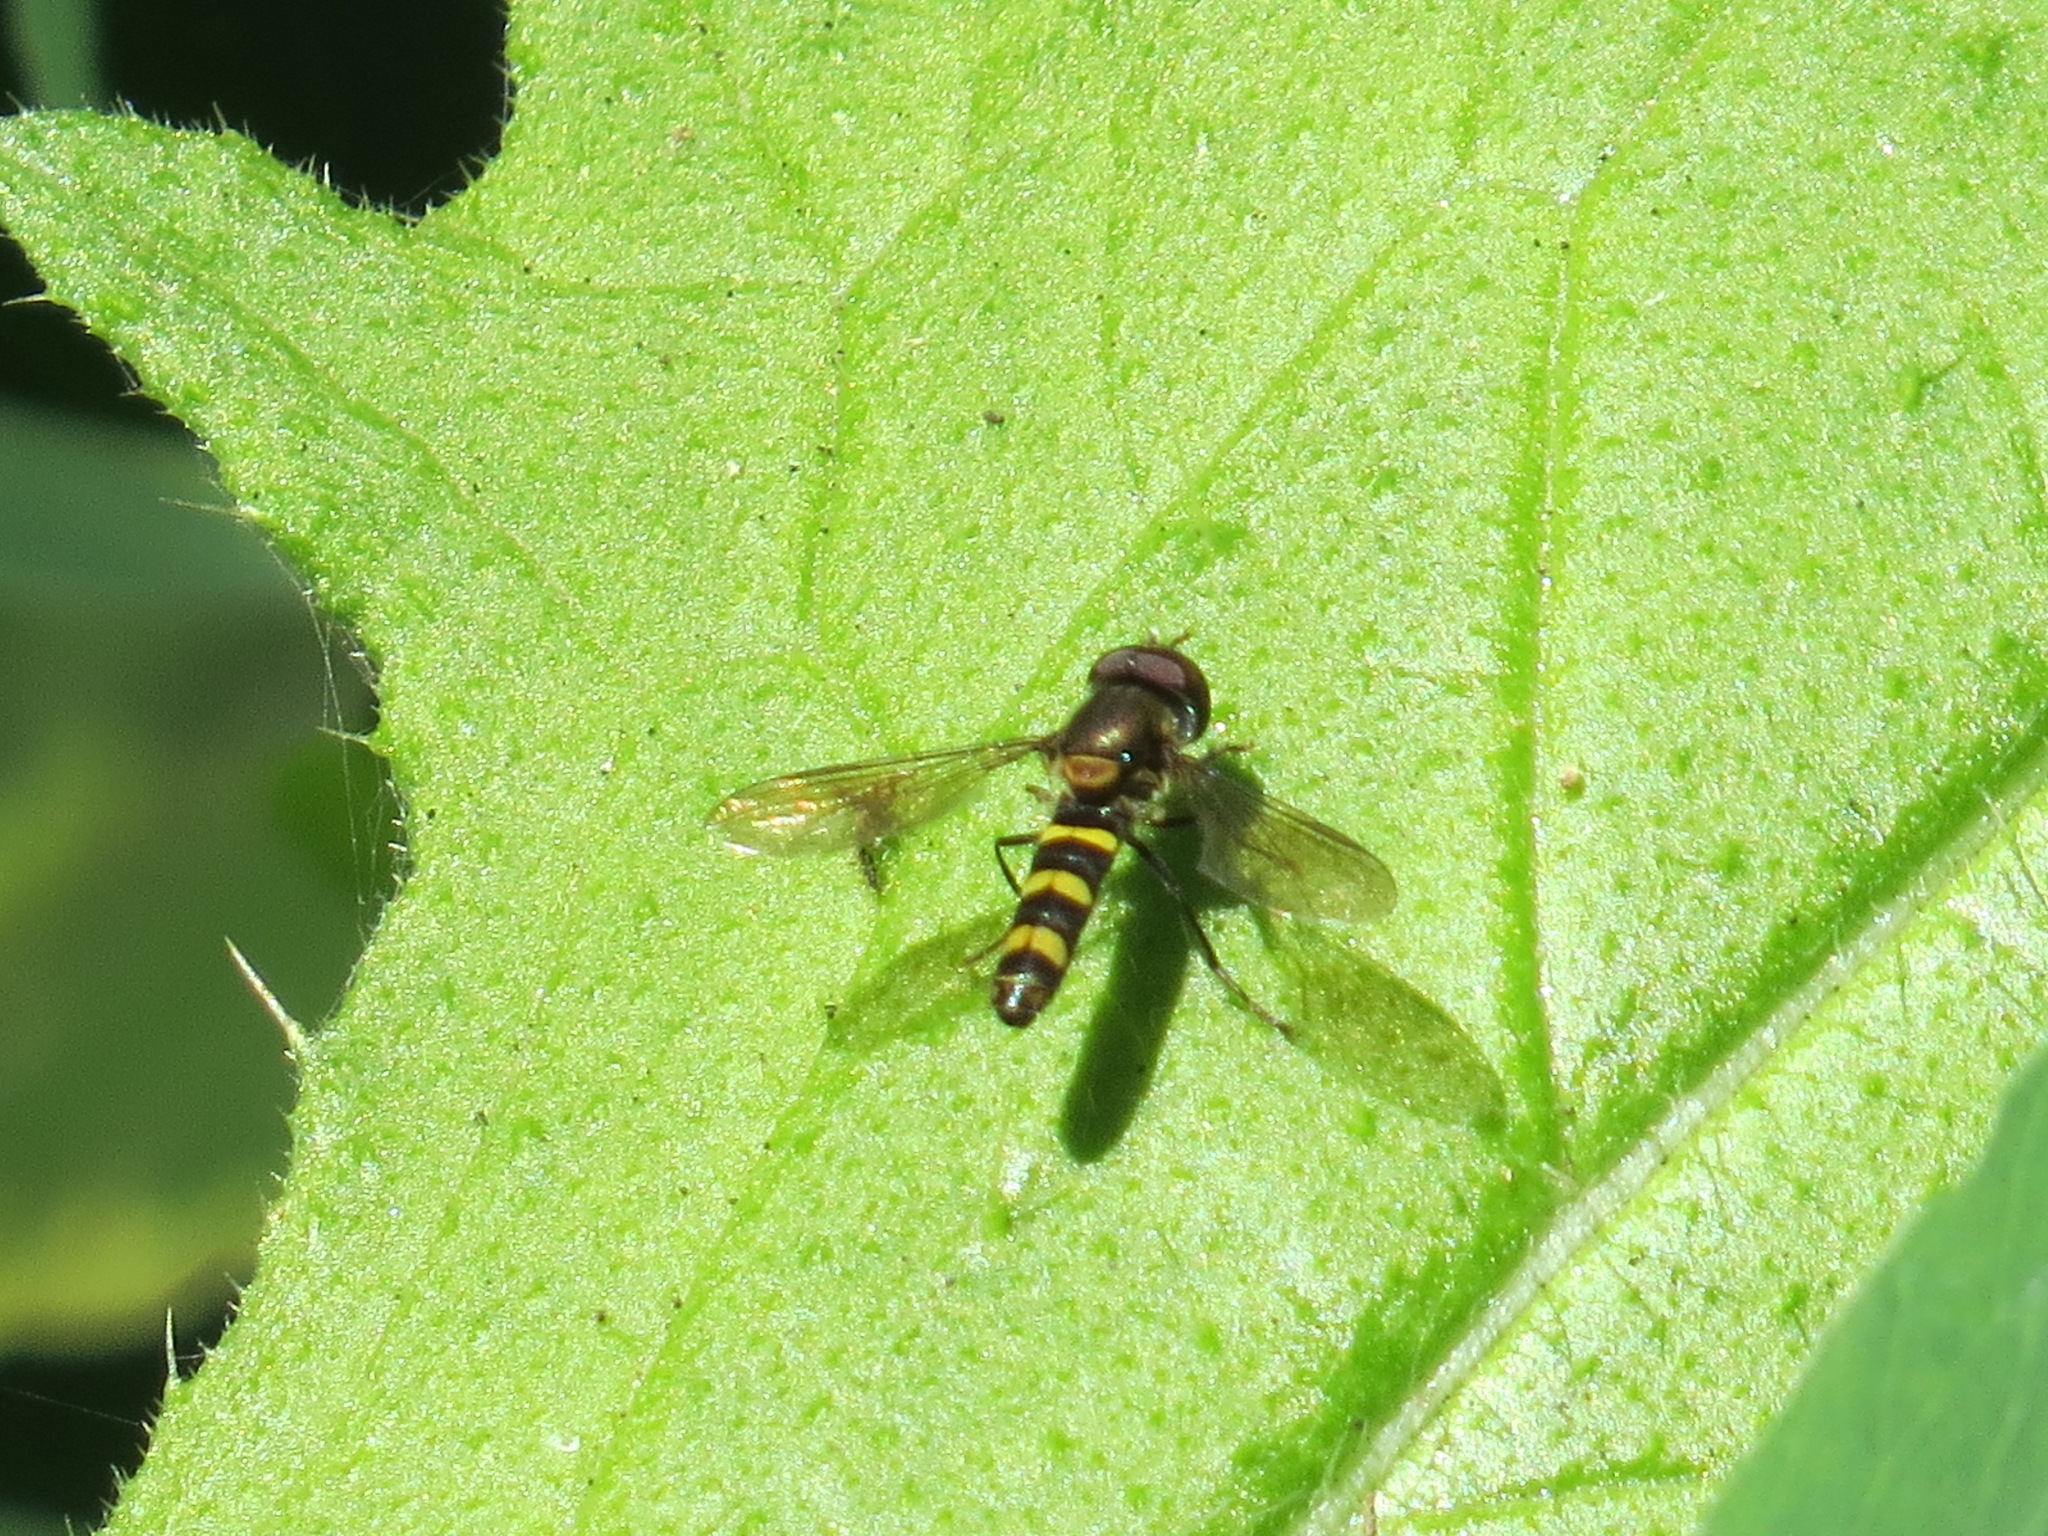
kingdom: Animalia
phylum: Arthropoda
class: Insecta
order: Diptera
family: Syrphidae
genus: Fazia
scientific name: Fazia micrura
